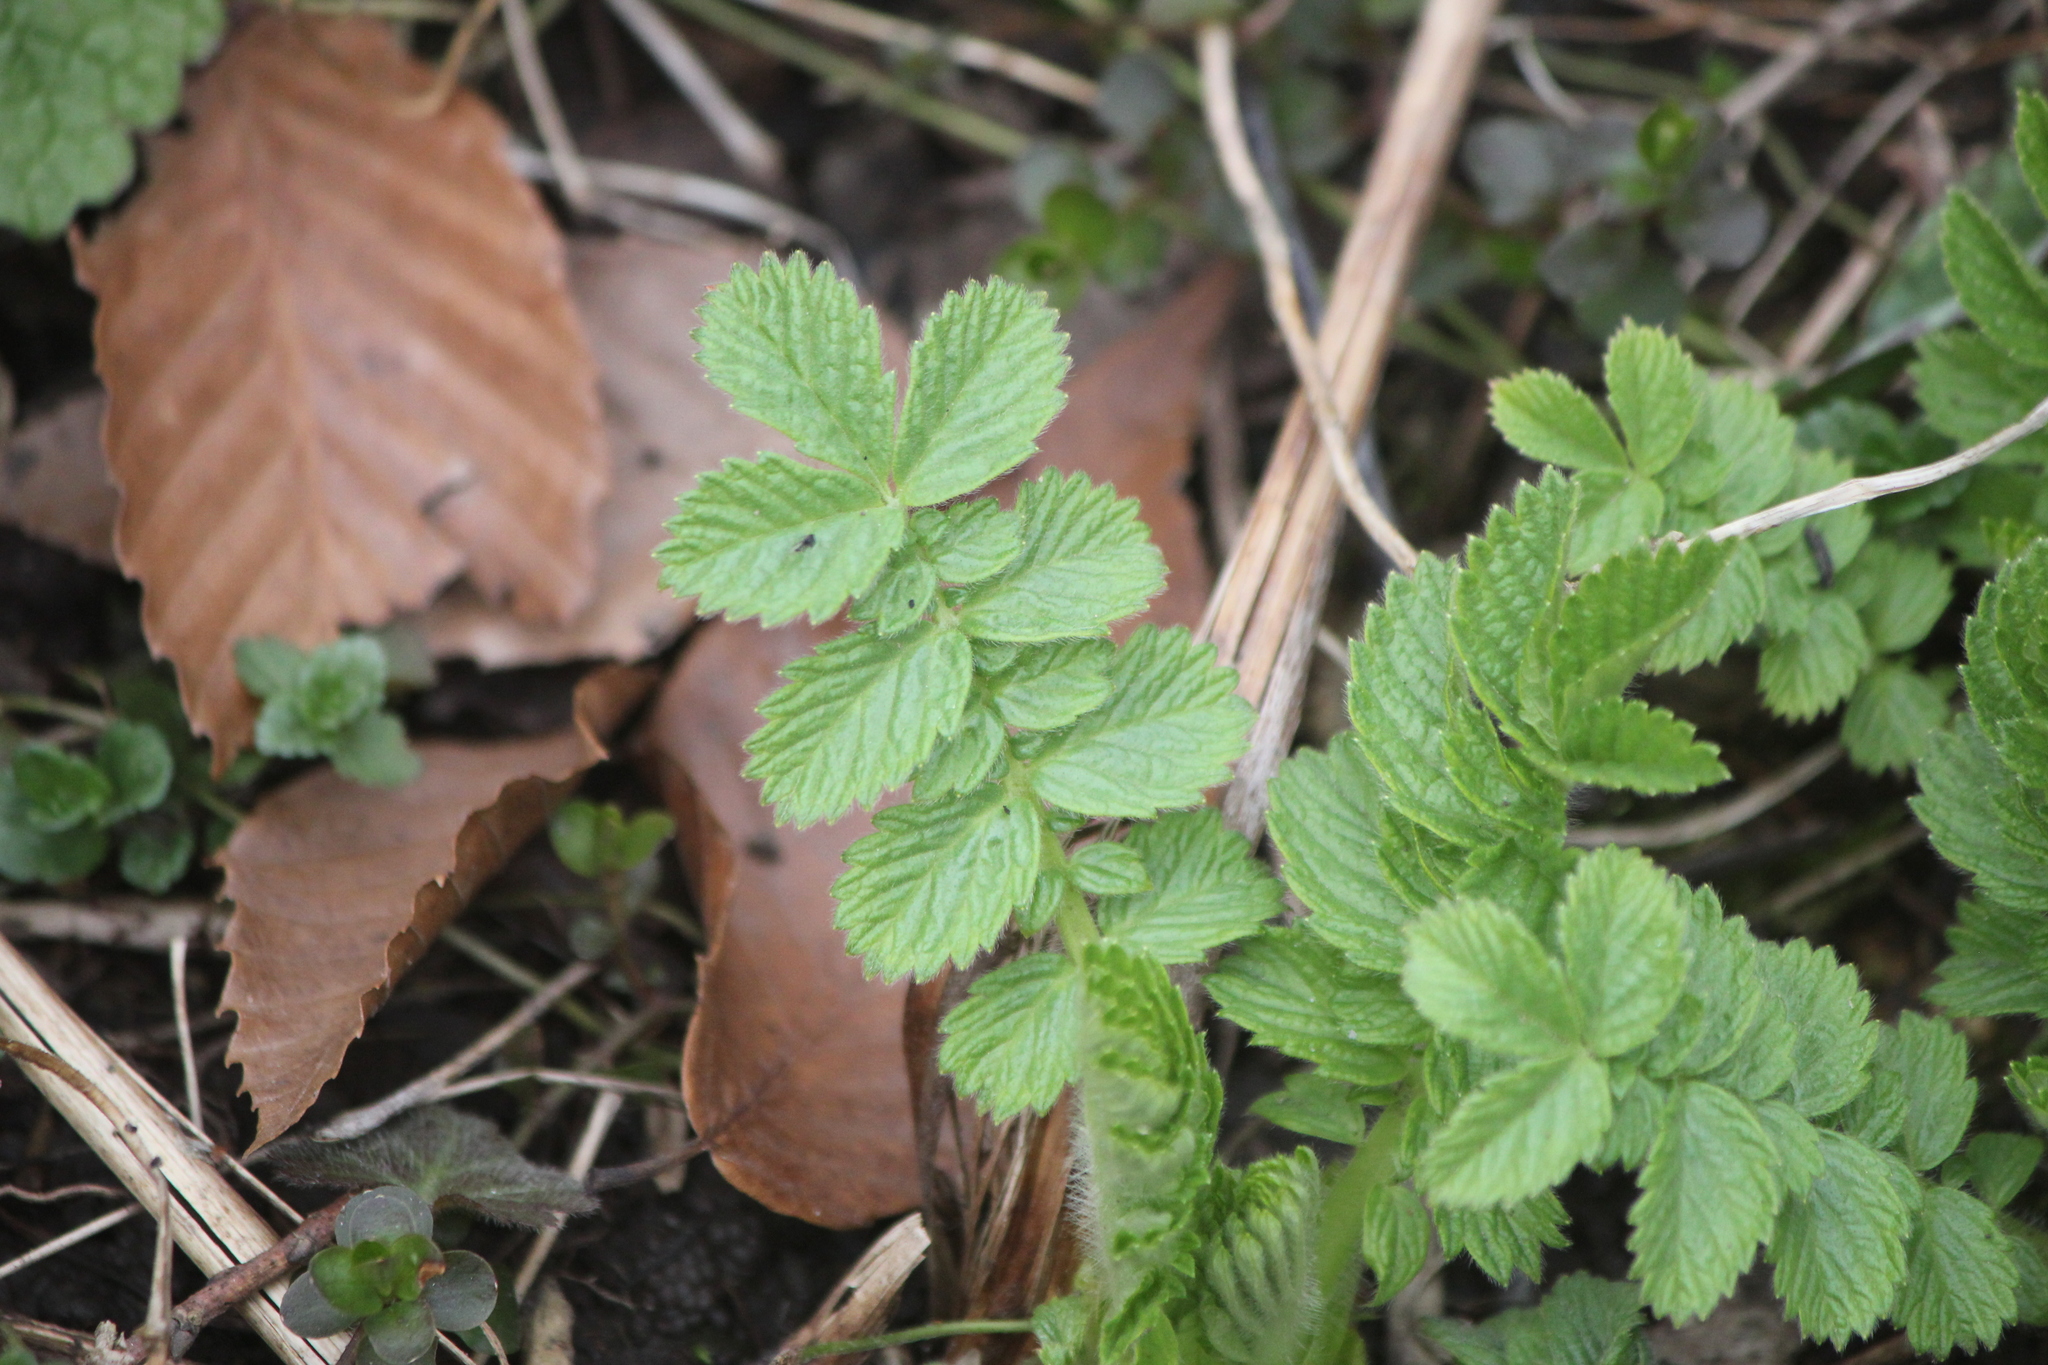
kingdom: Plantae
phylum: Tracheophyta
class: Magnoliopsida
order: Rosales
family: Rosaceae
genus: Drymocallis
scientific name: Drymocallis arguta
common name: Tall cinquefoil
